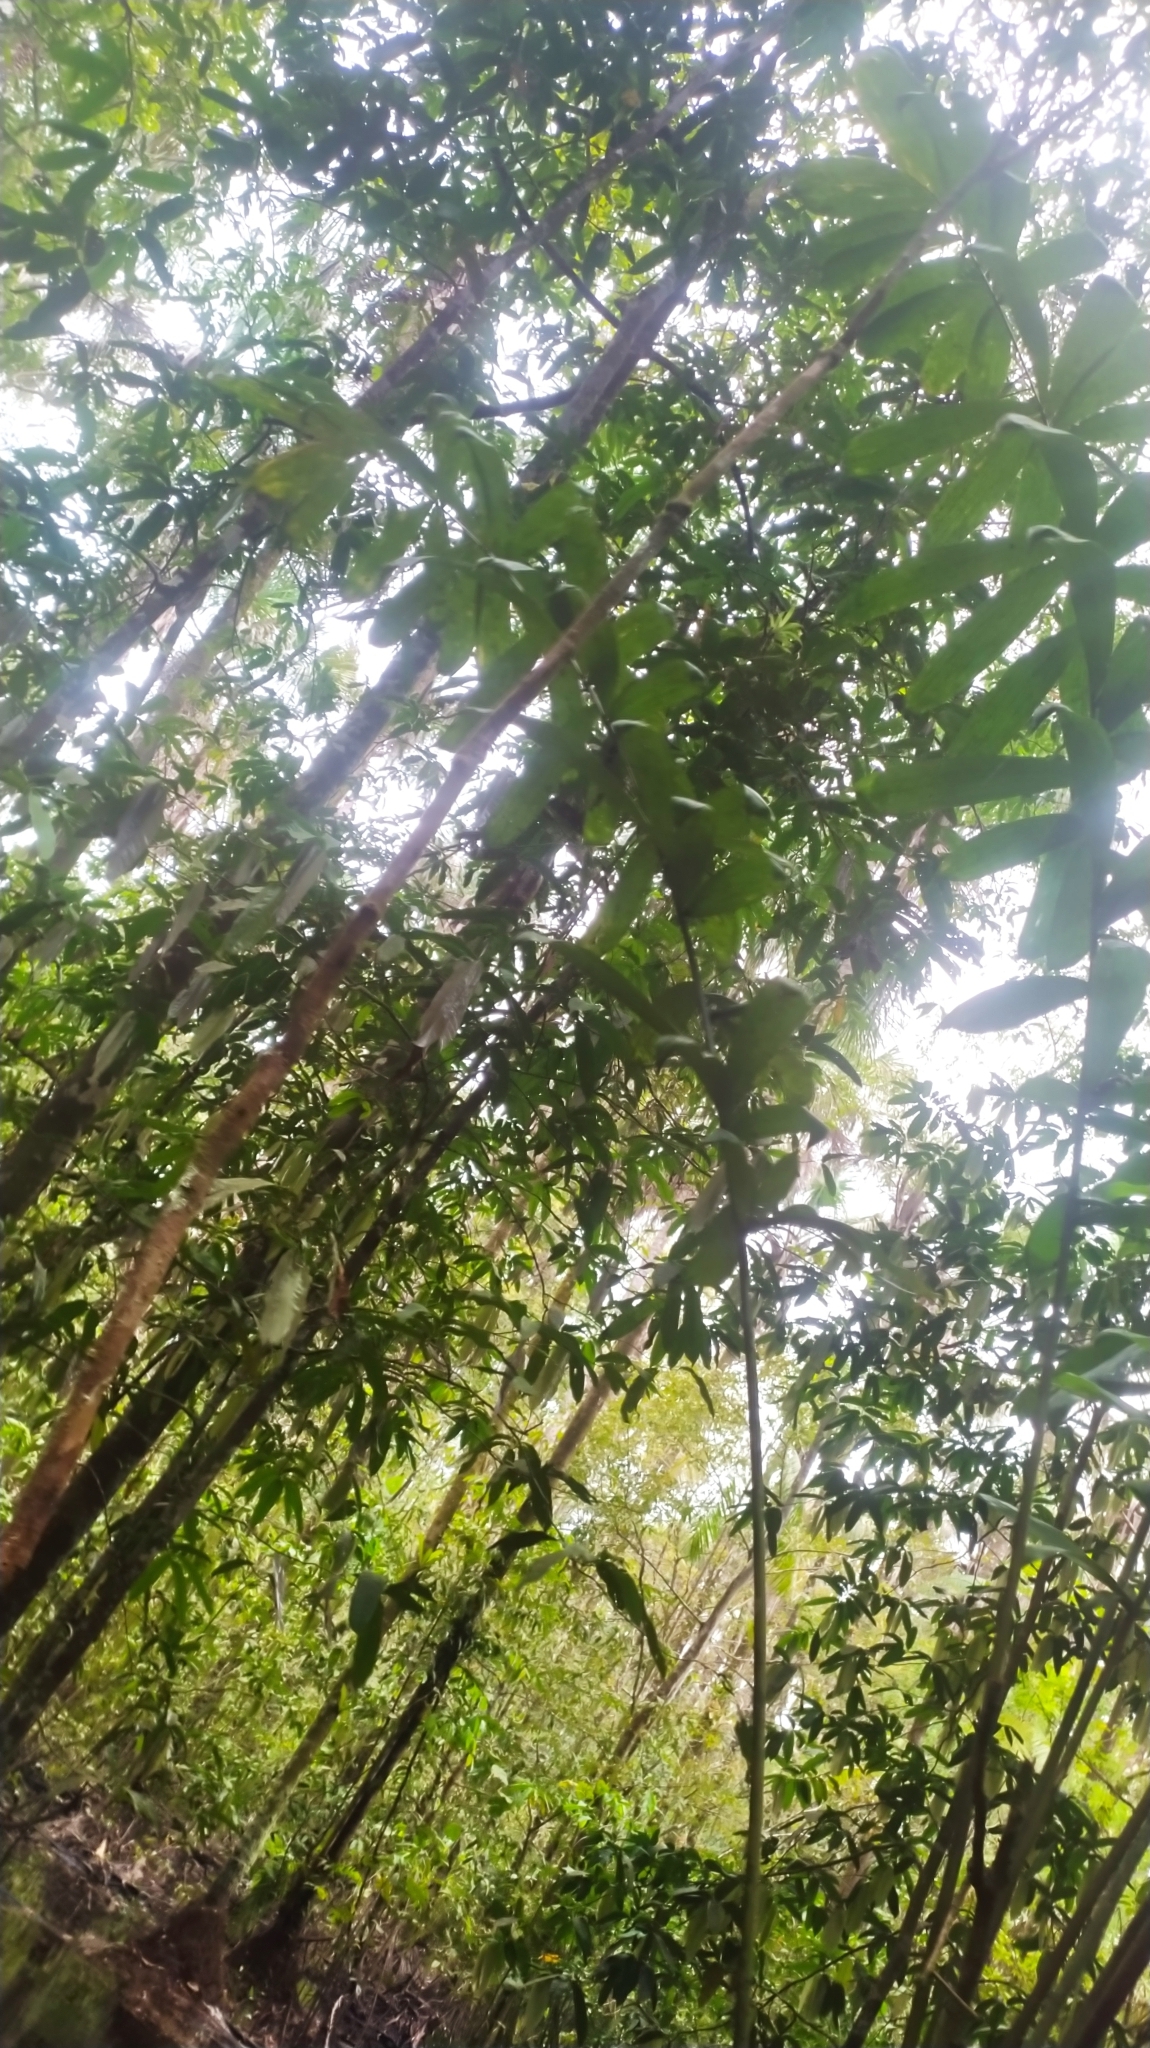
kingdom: Plantae
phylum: Tracheophyta
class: Liliopsida
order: Arecales
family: Arecaceae
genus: Bactris
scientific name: Bactris pliniana
